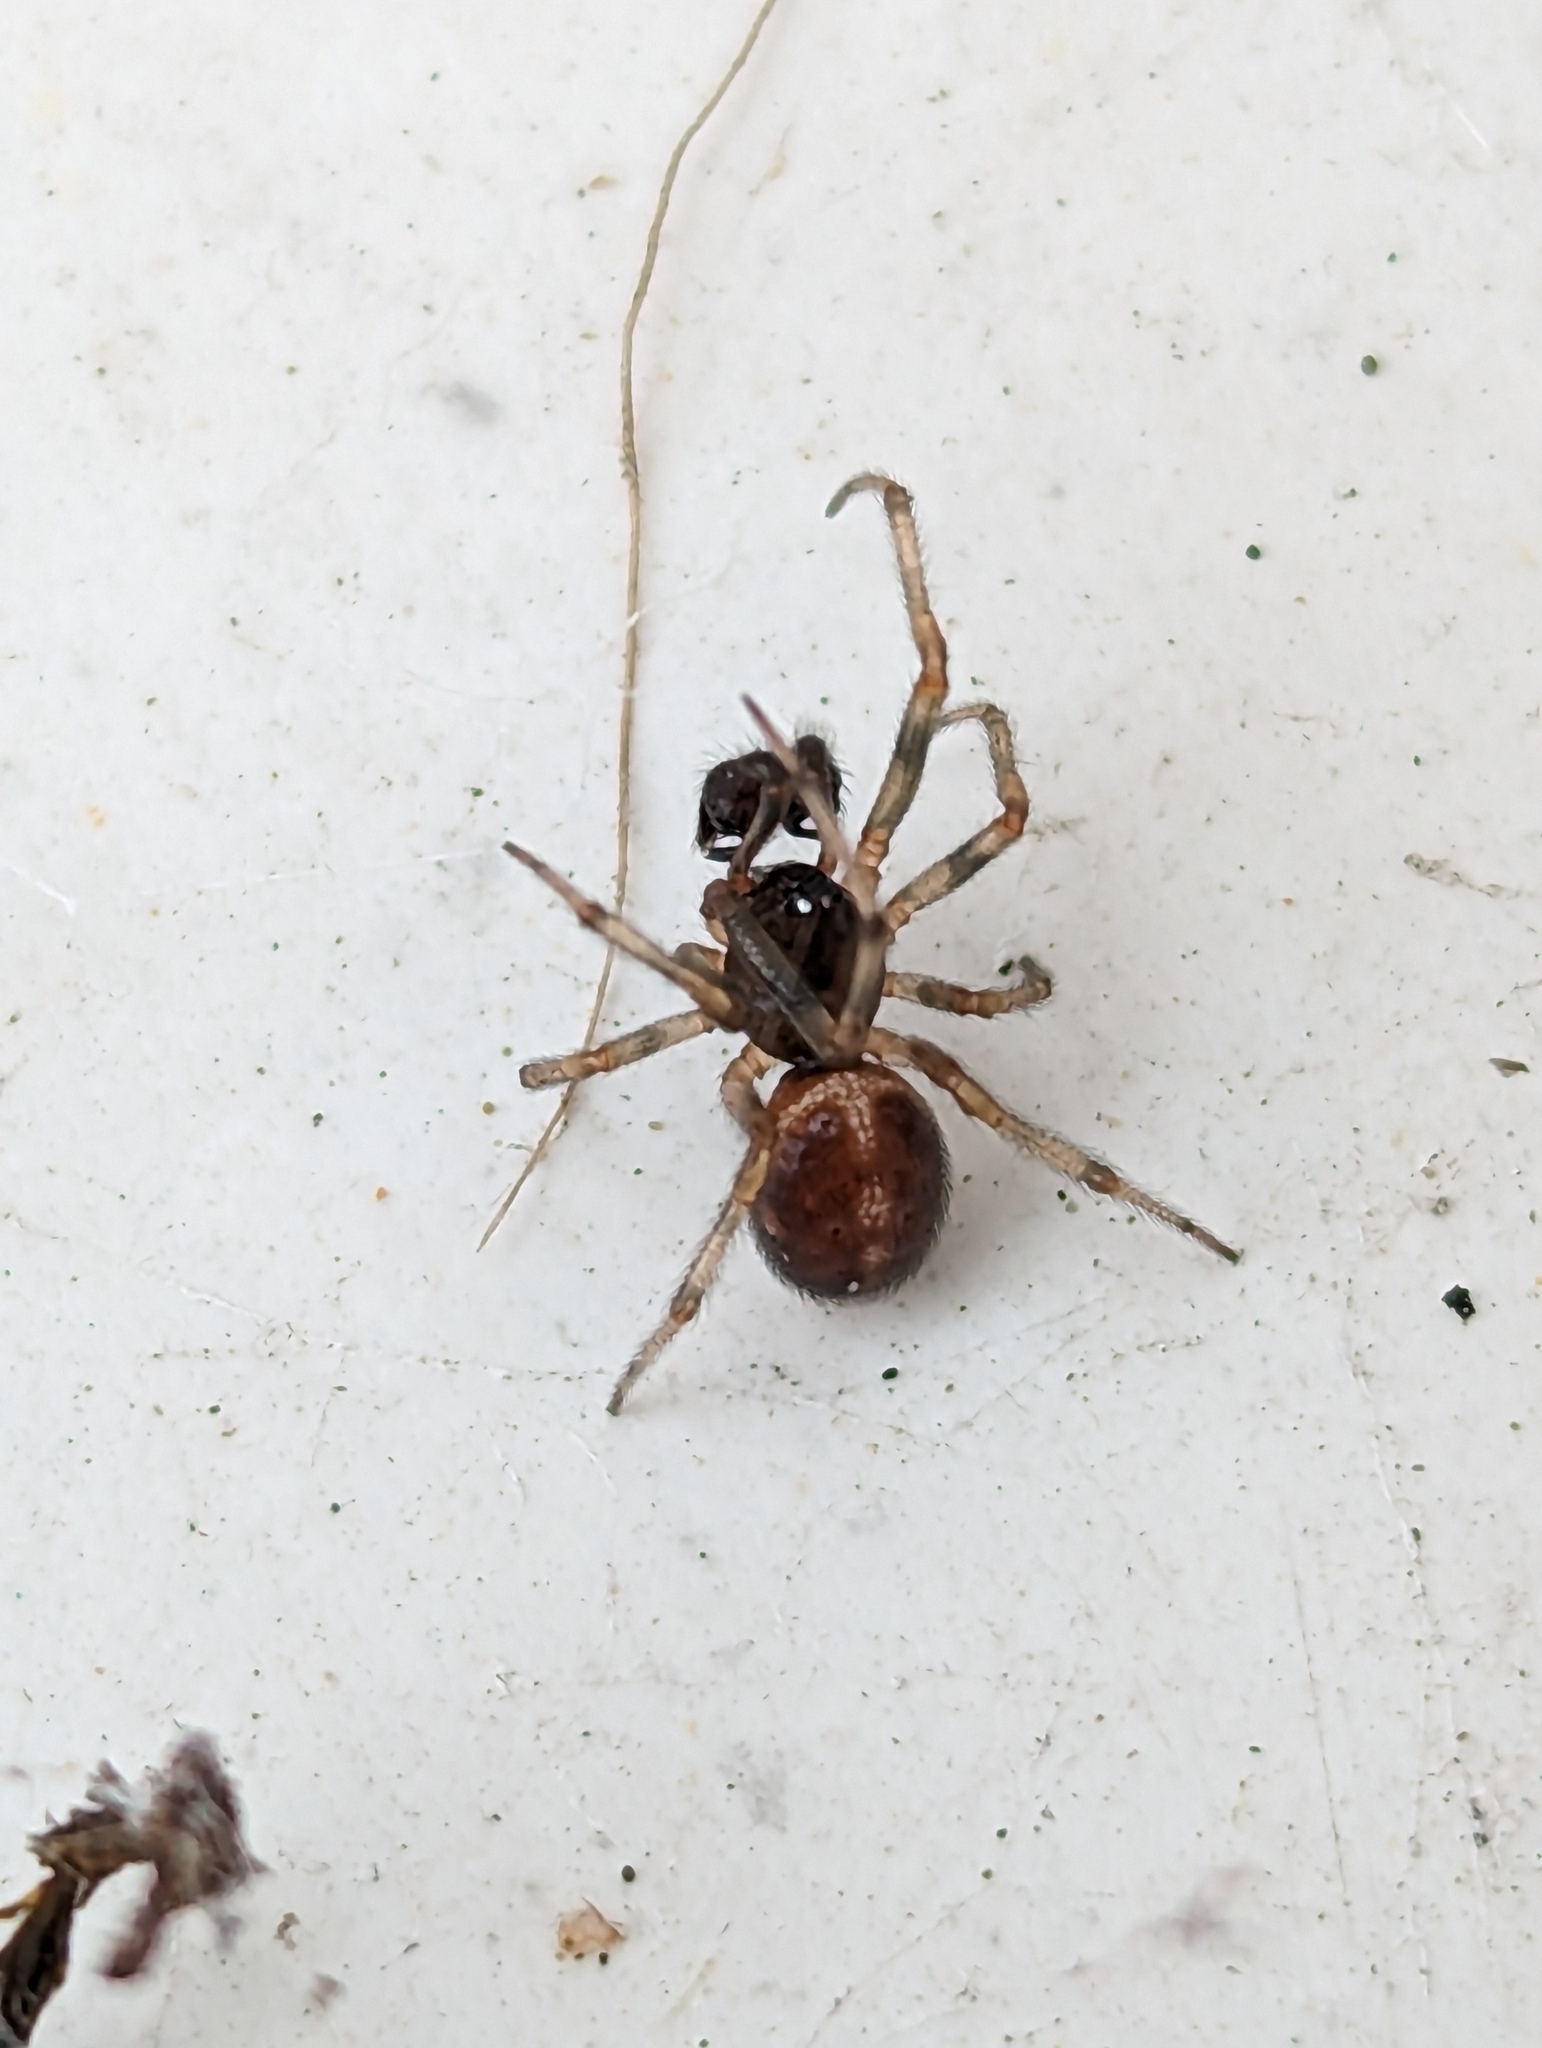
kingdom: Animalia
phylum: Arthropoda
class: Arachnida
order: Araneae
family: Theridiidae
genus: Steatoda
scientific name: Steatoda bipunctata
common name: False widow
